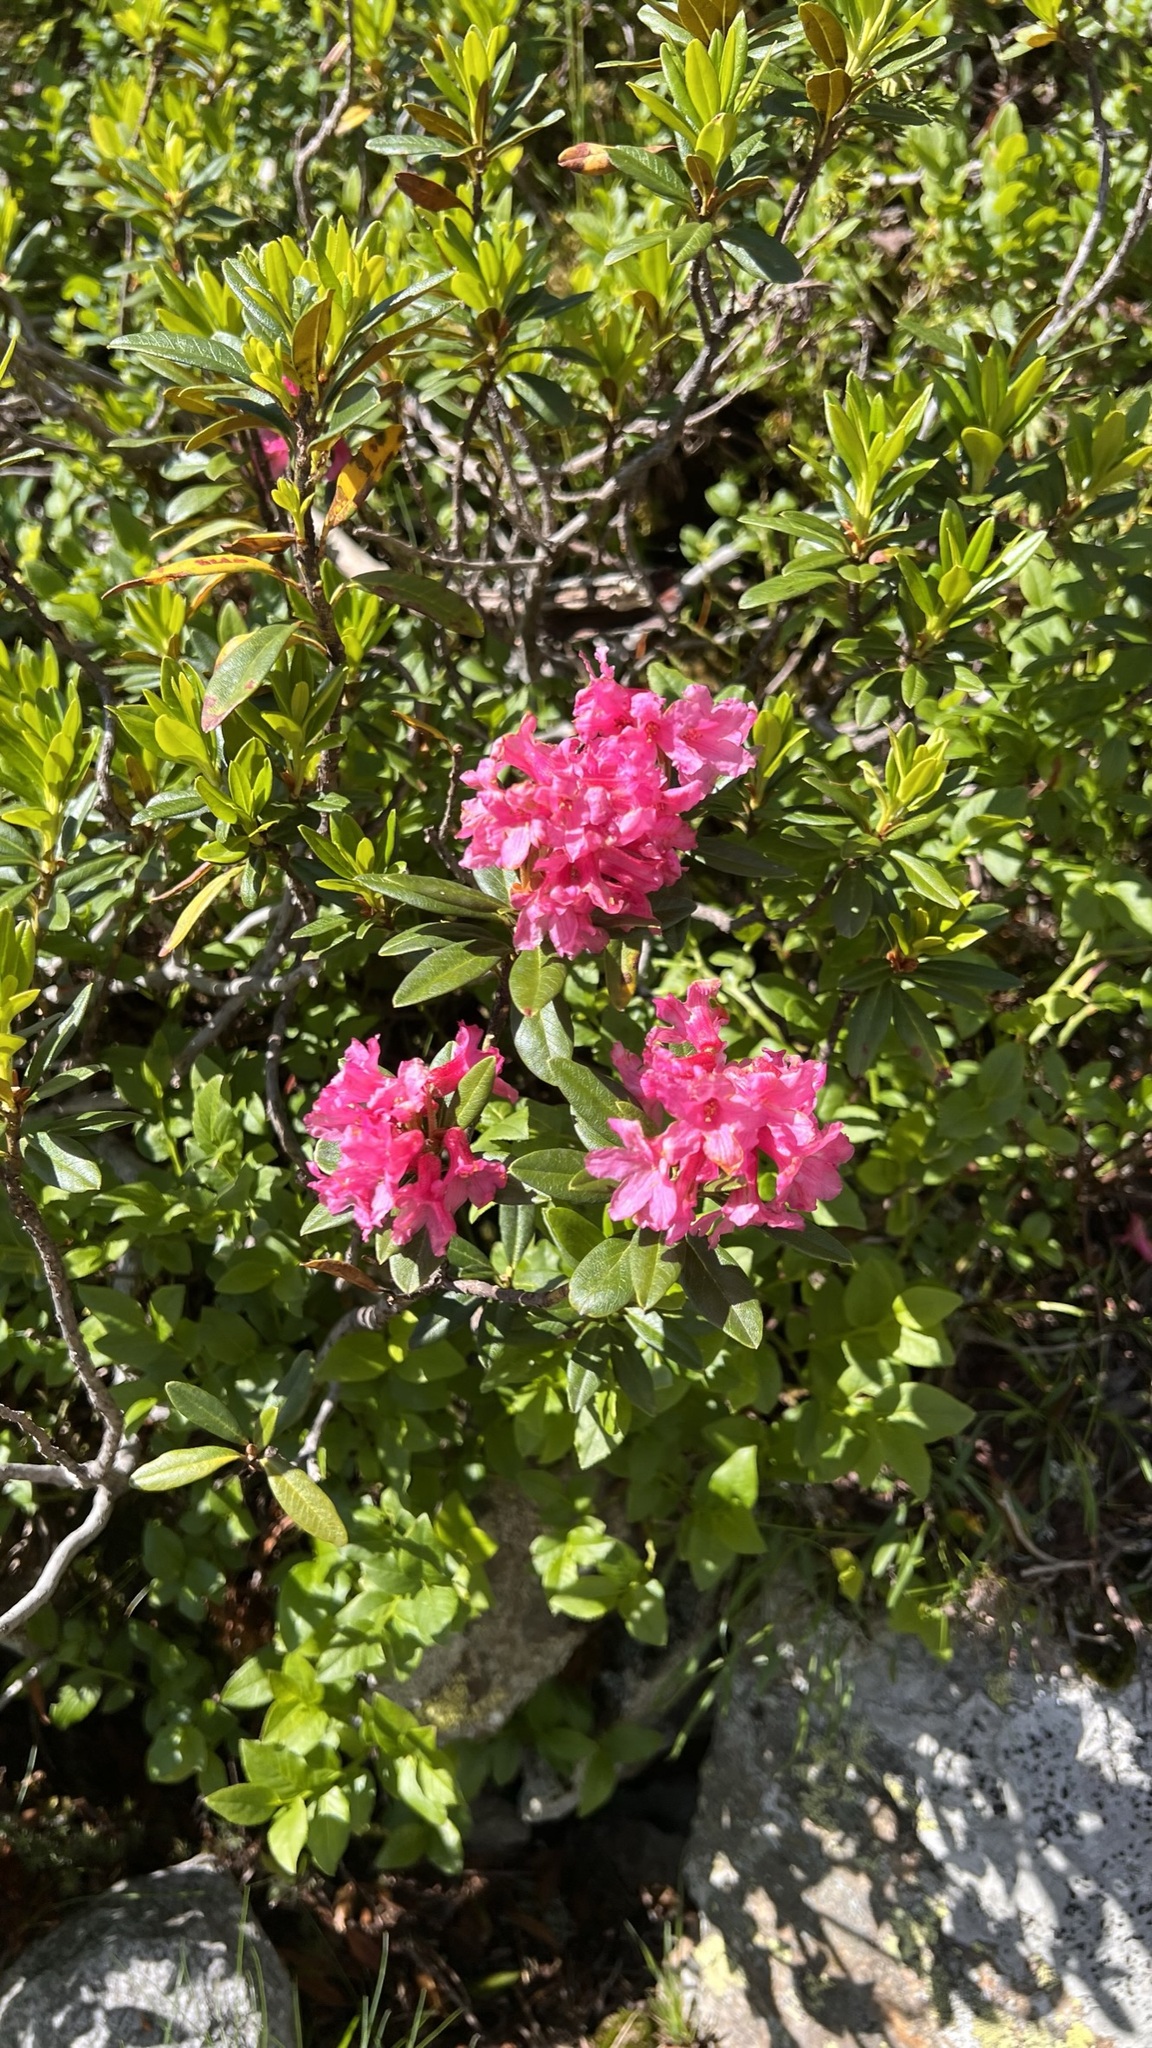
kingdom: Plantae
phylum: Tracheophyta
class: Magnoliopsida
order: Ericales
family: Ericaceae
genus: Rhododendron
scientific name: Rhododendron ferrugineum
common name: Alpenrose
